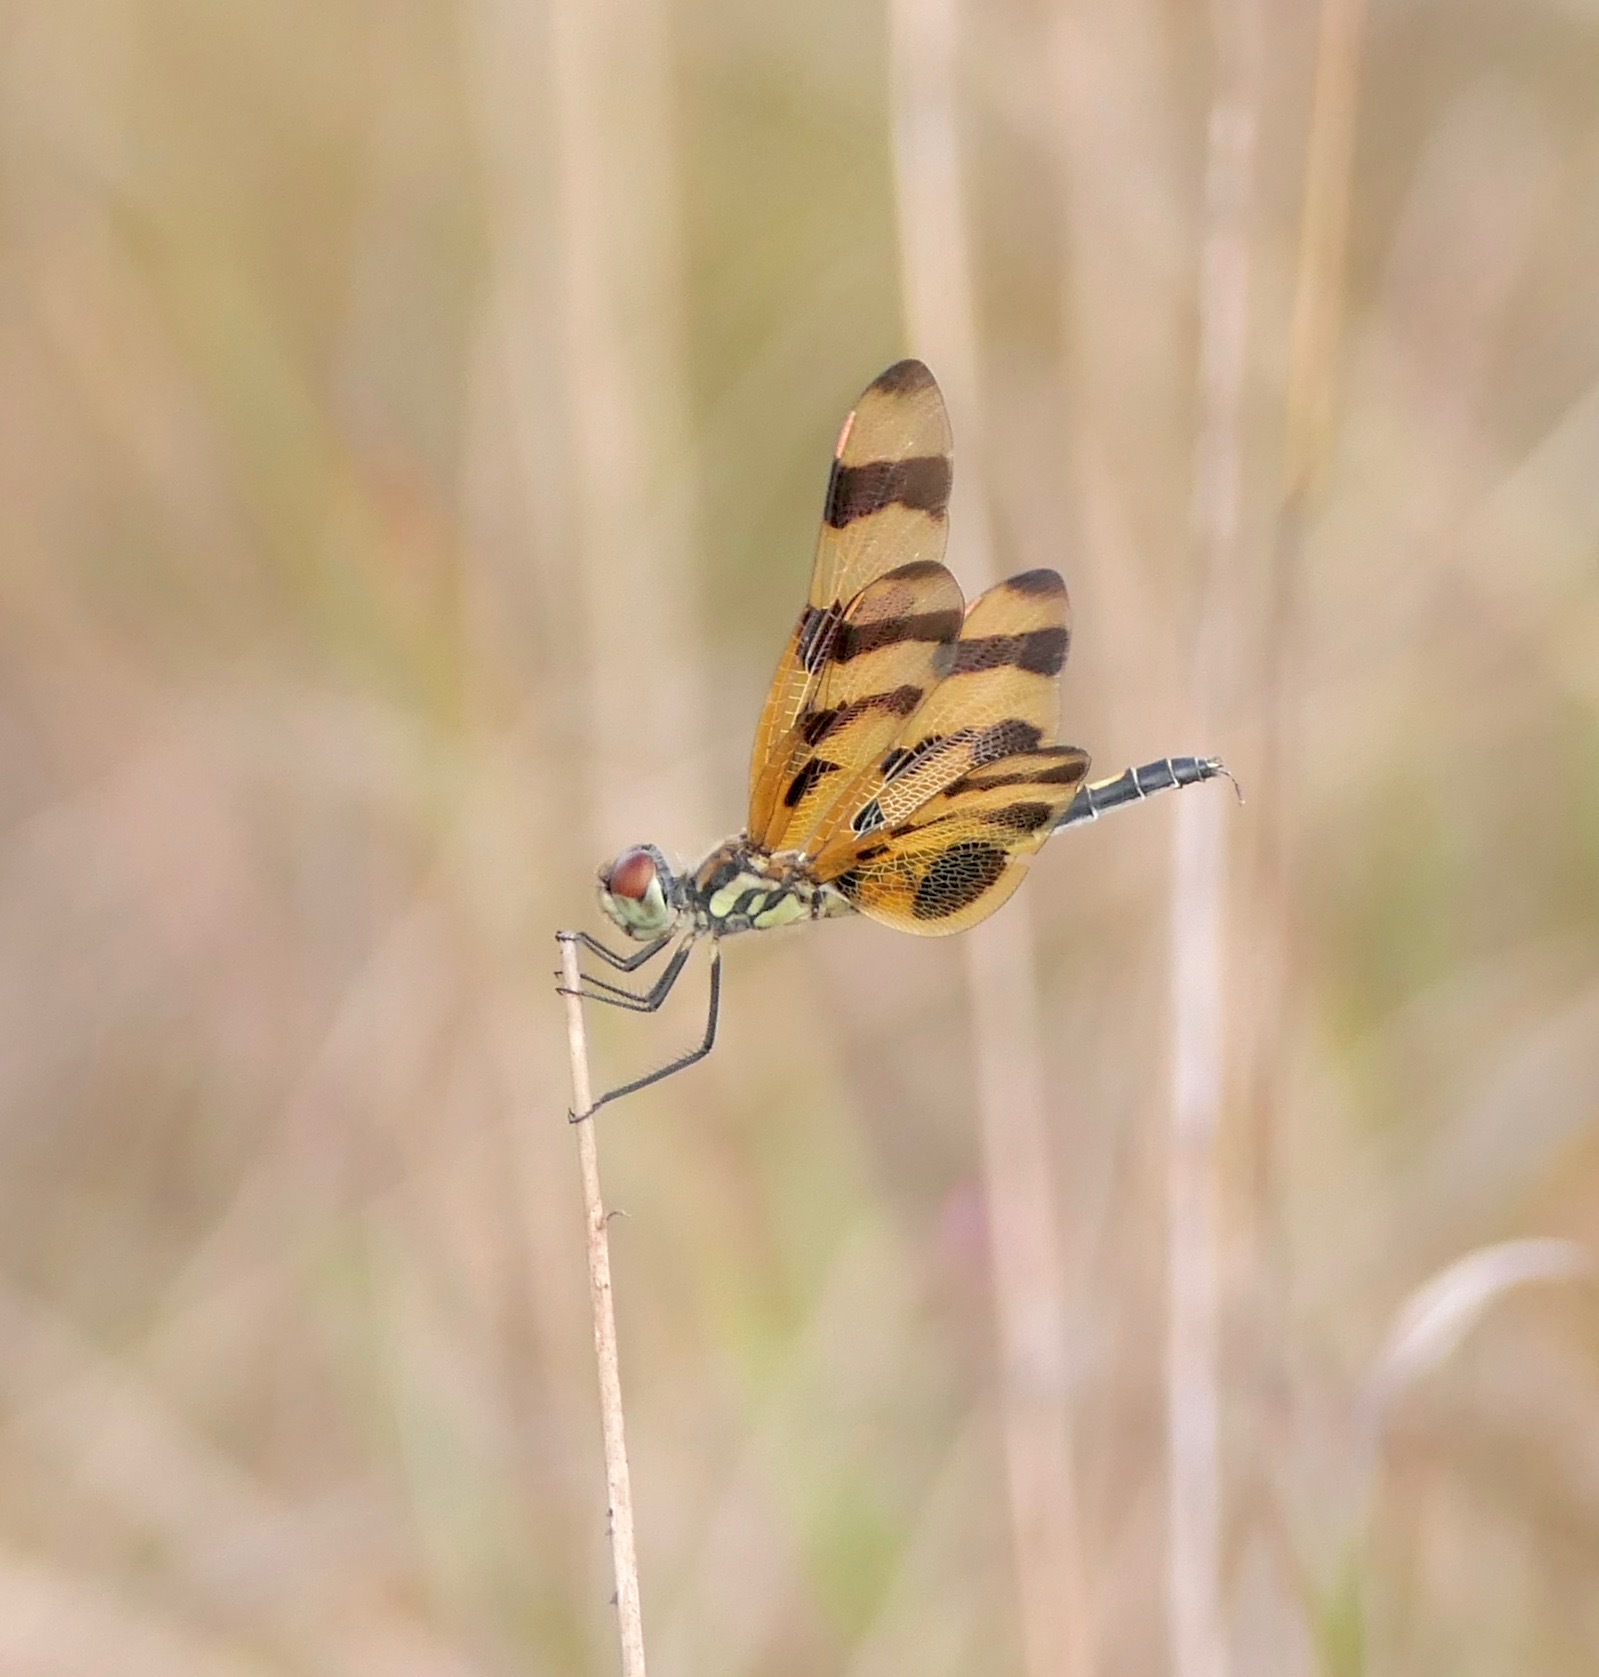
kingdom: Animalia
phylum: Arthropoda
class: Insecta
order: Odonata
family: Libellulidae
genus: Celithemis
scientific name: Celithemis eponina
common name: Halloween pennant
